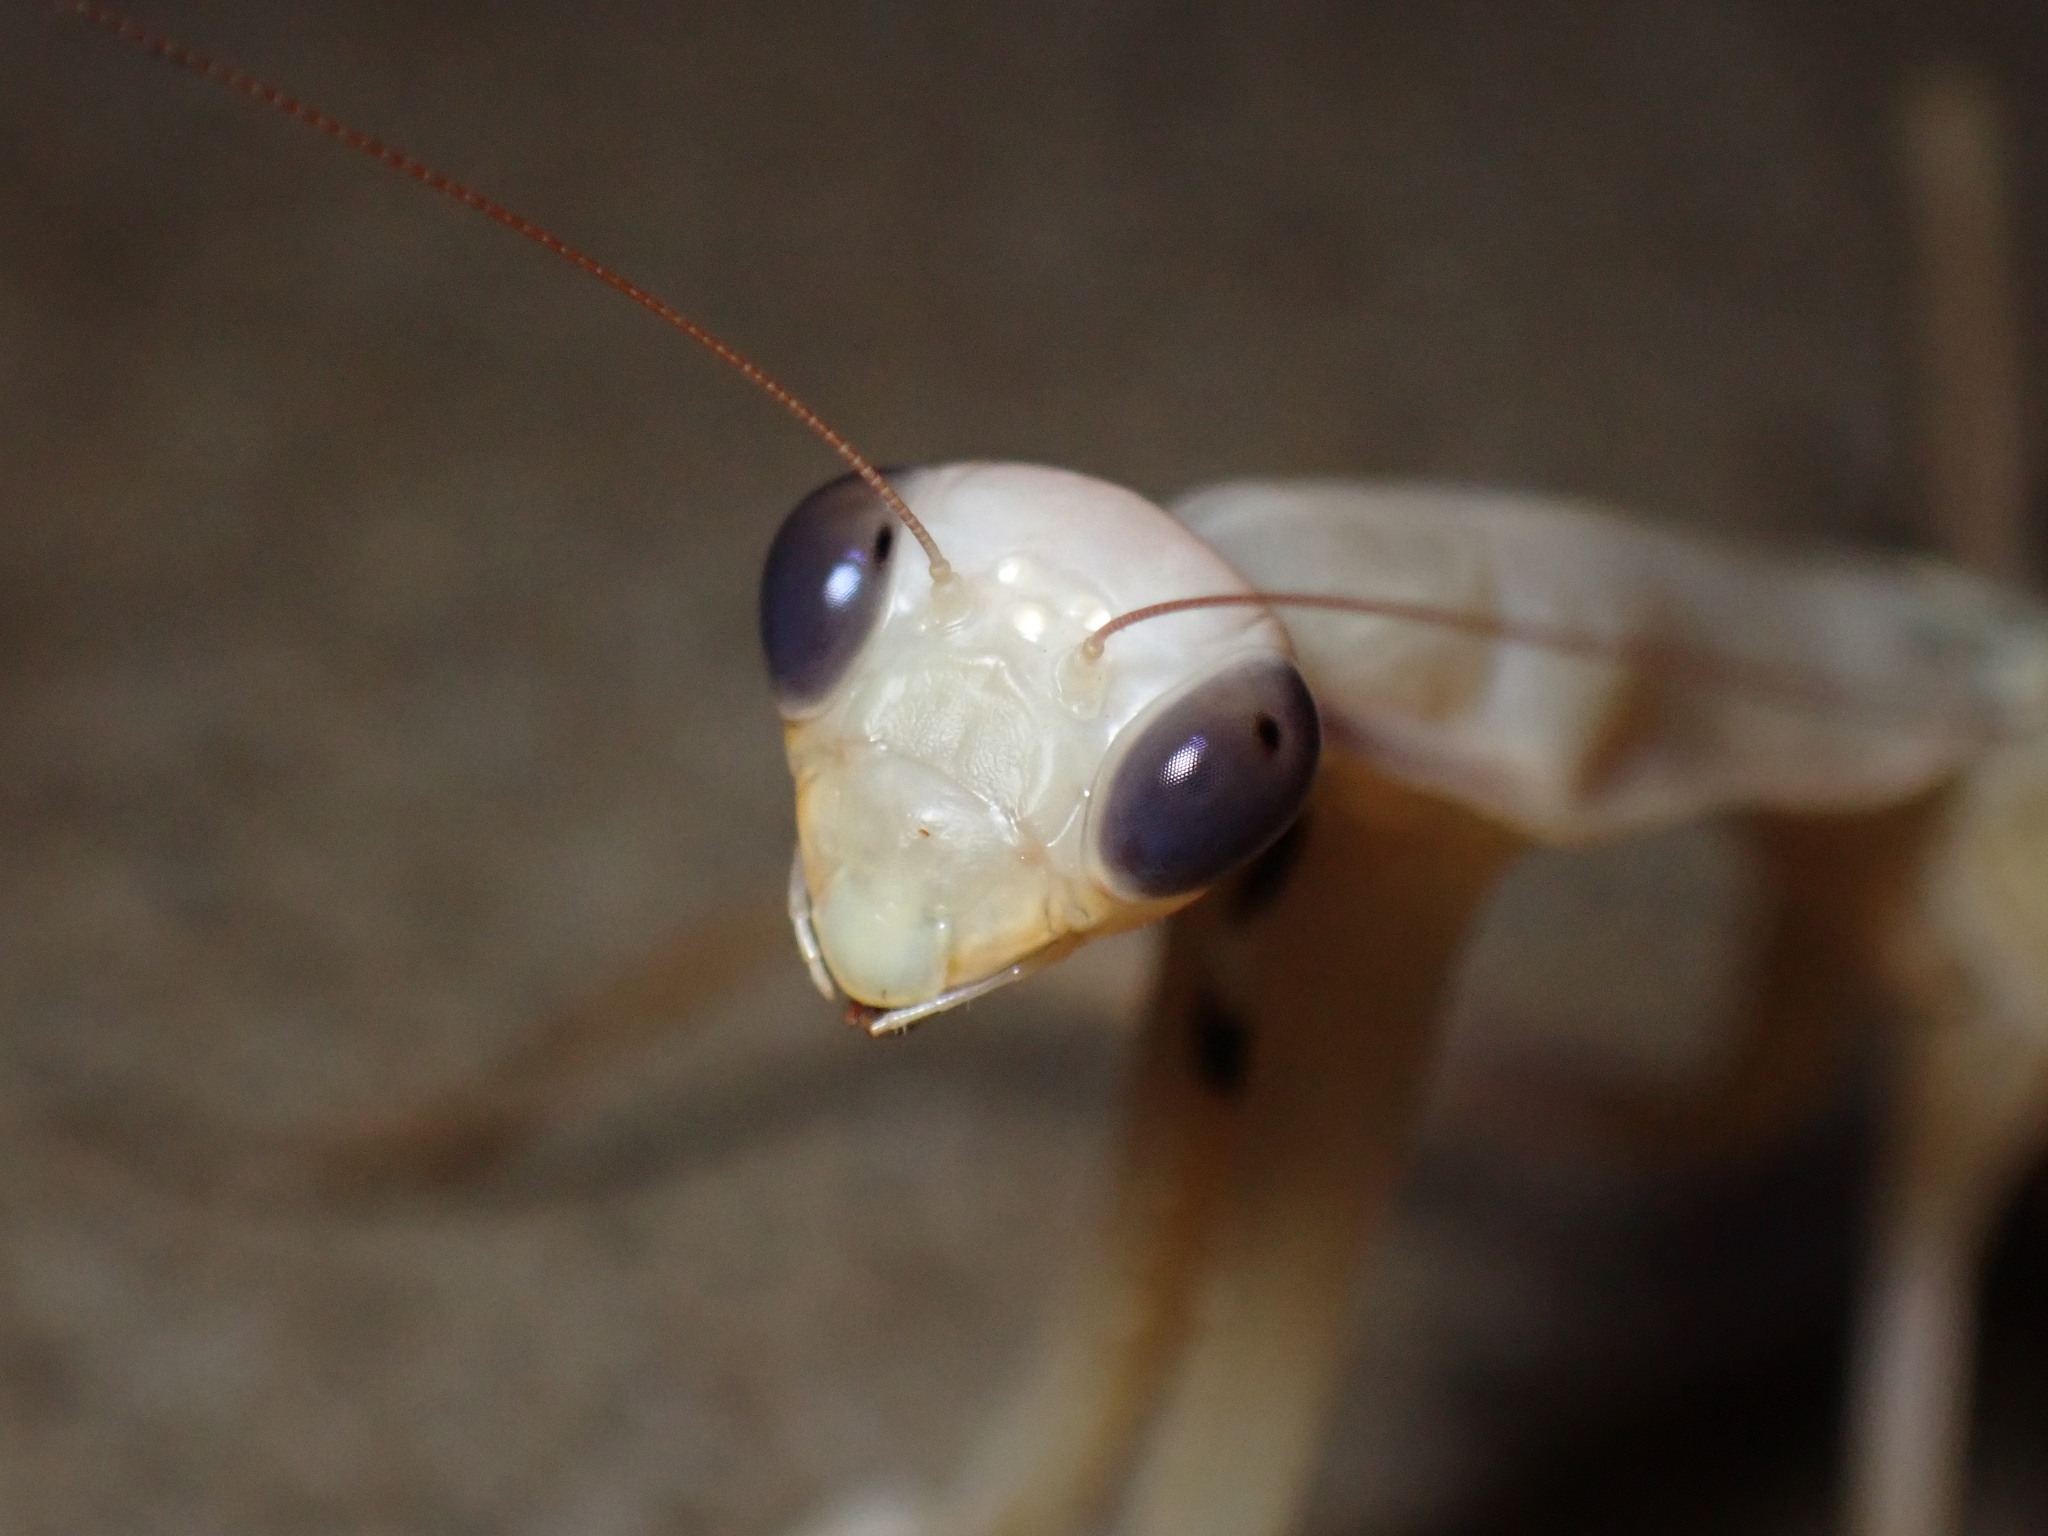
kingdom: Animalia
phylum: Arthropoda
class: Insecta
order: Mantodea
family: Mantidae
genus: Mantis
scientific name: Mantis religiosa
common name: Praying mantis
